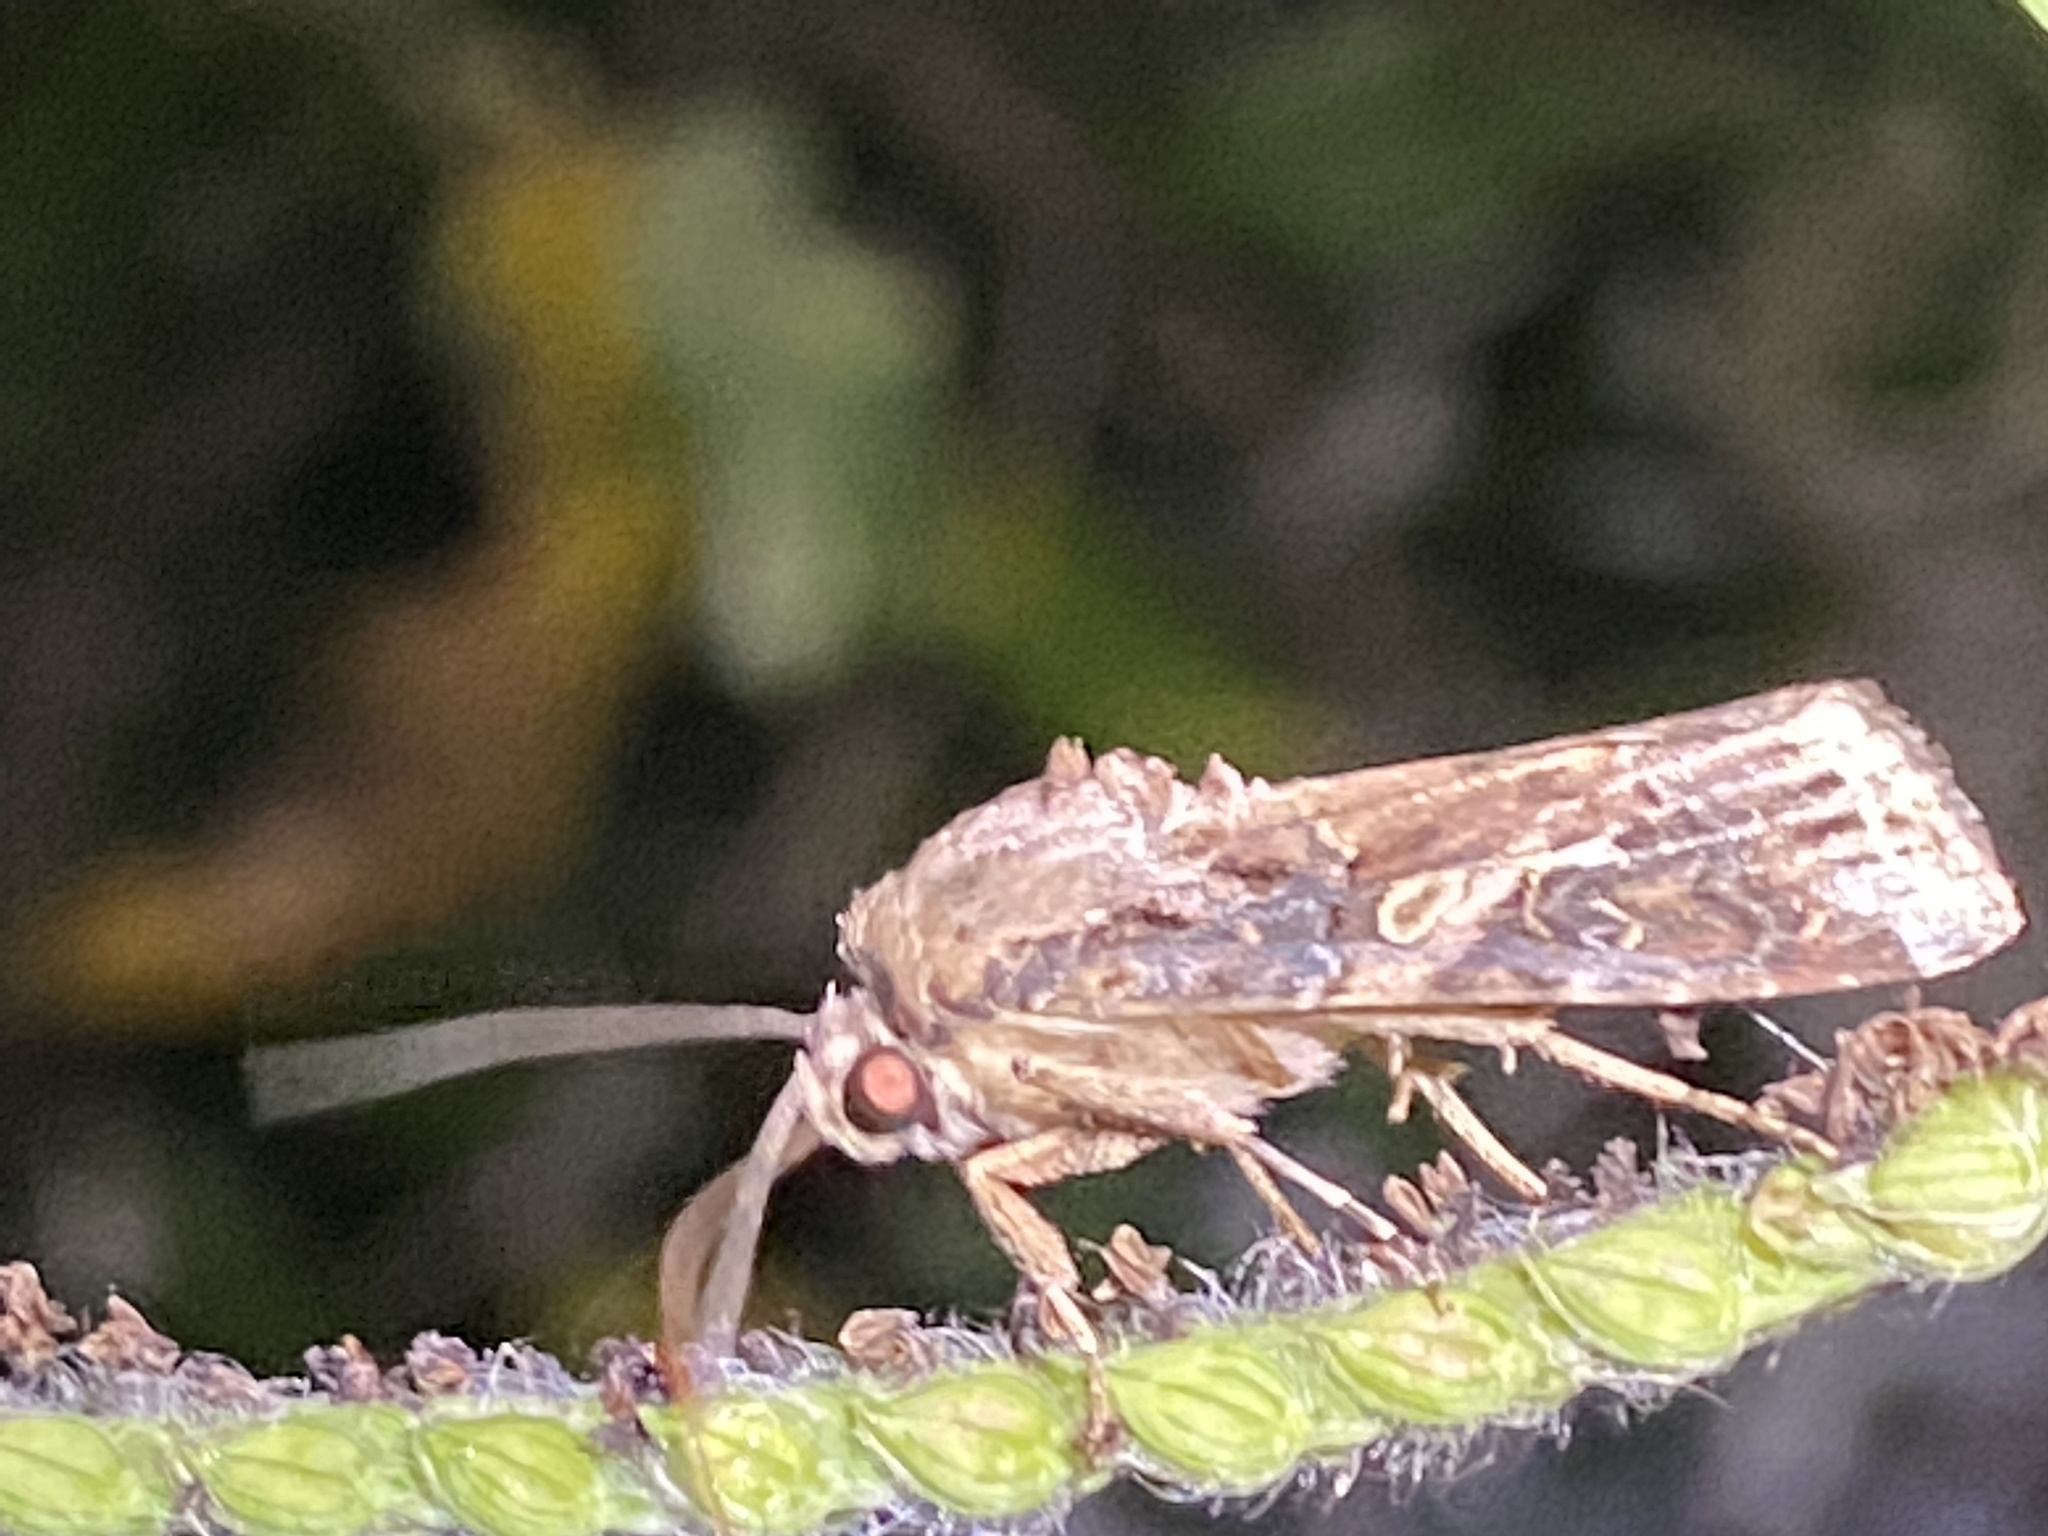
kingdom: Animalia
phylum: Arthropoda
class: Insecta
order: Lepidoptera
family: Noctuidae
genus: Spodoptera
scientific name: Spodoptera frugiperda
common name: Fall armyworm
